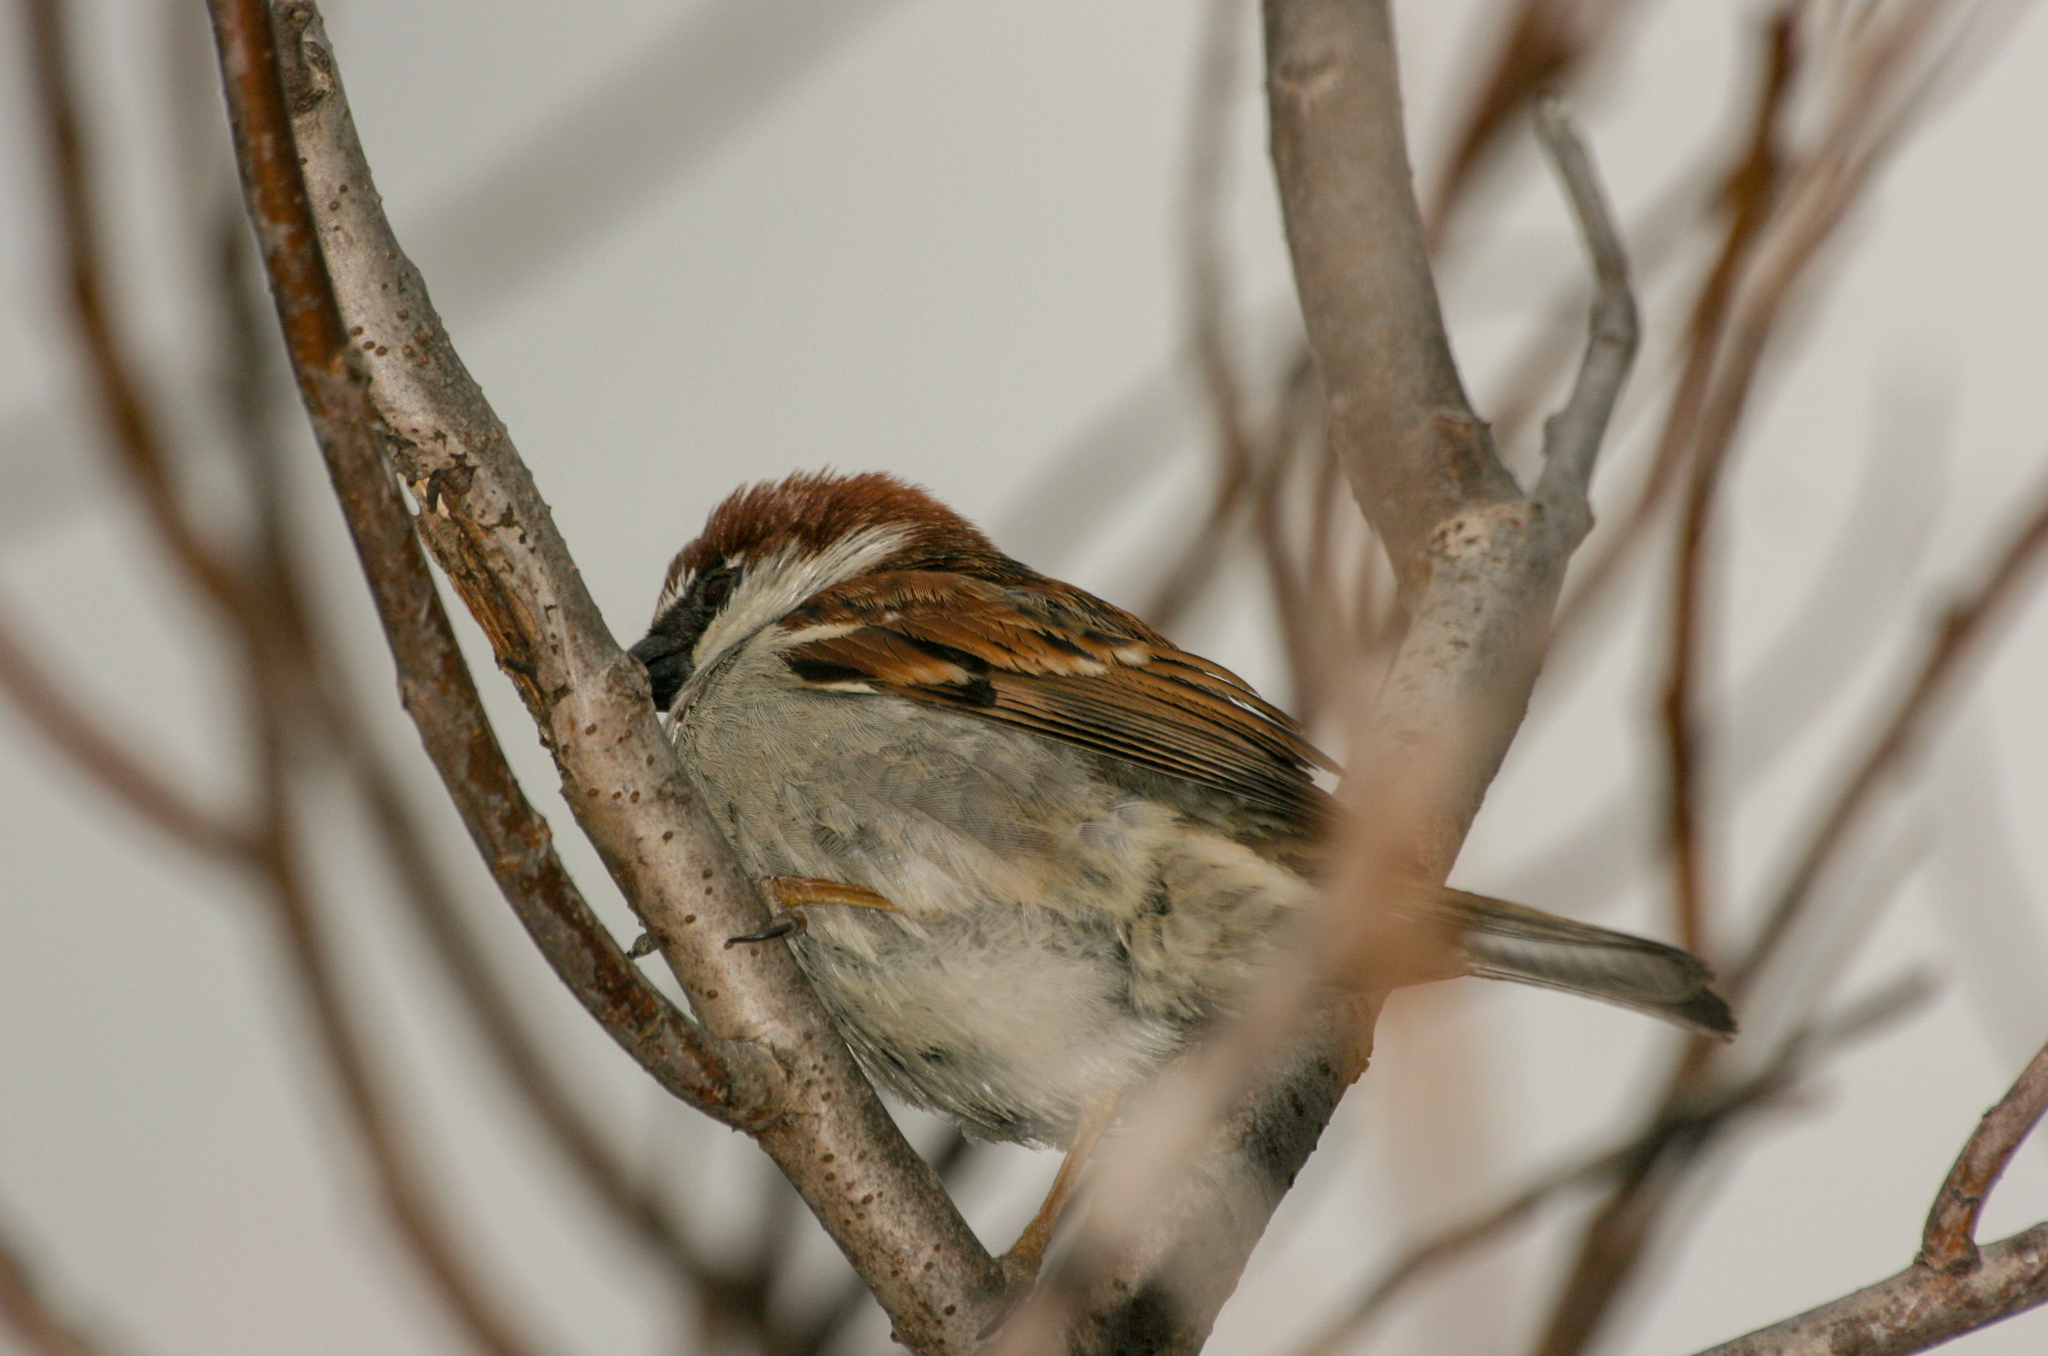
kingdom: Animalia
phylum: Chordata
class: Aves
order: Passeriformes
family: Passeridae
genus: Passer
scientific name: Passer domesticus
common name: House sparrow
